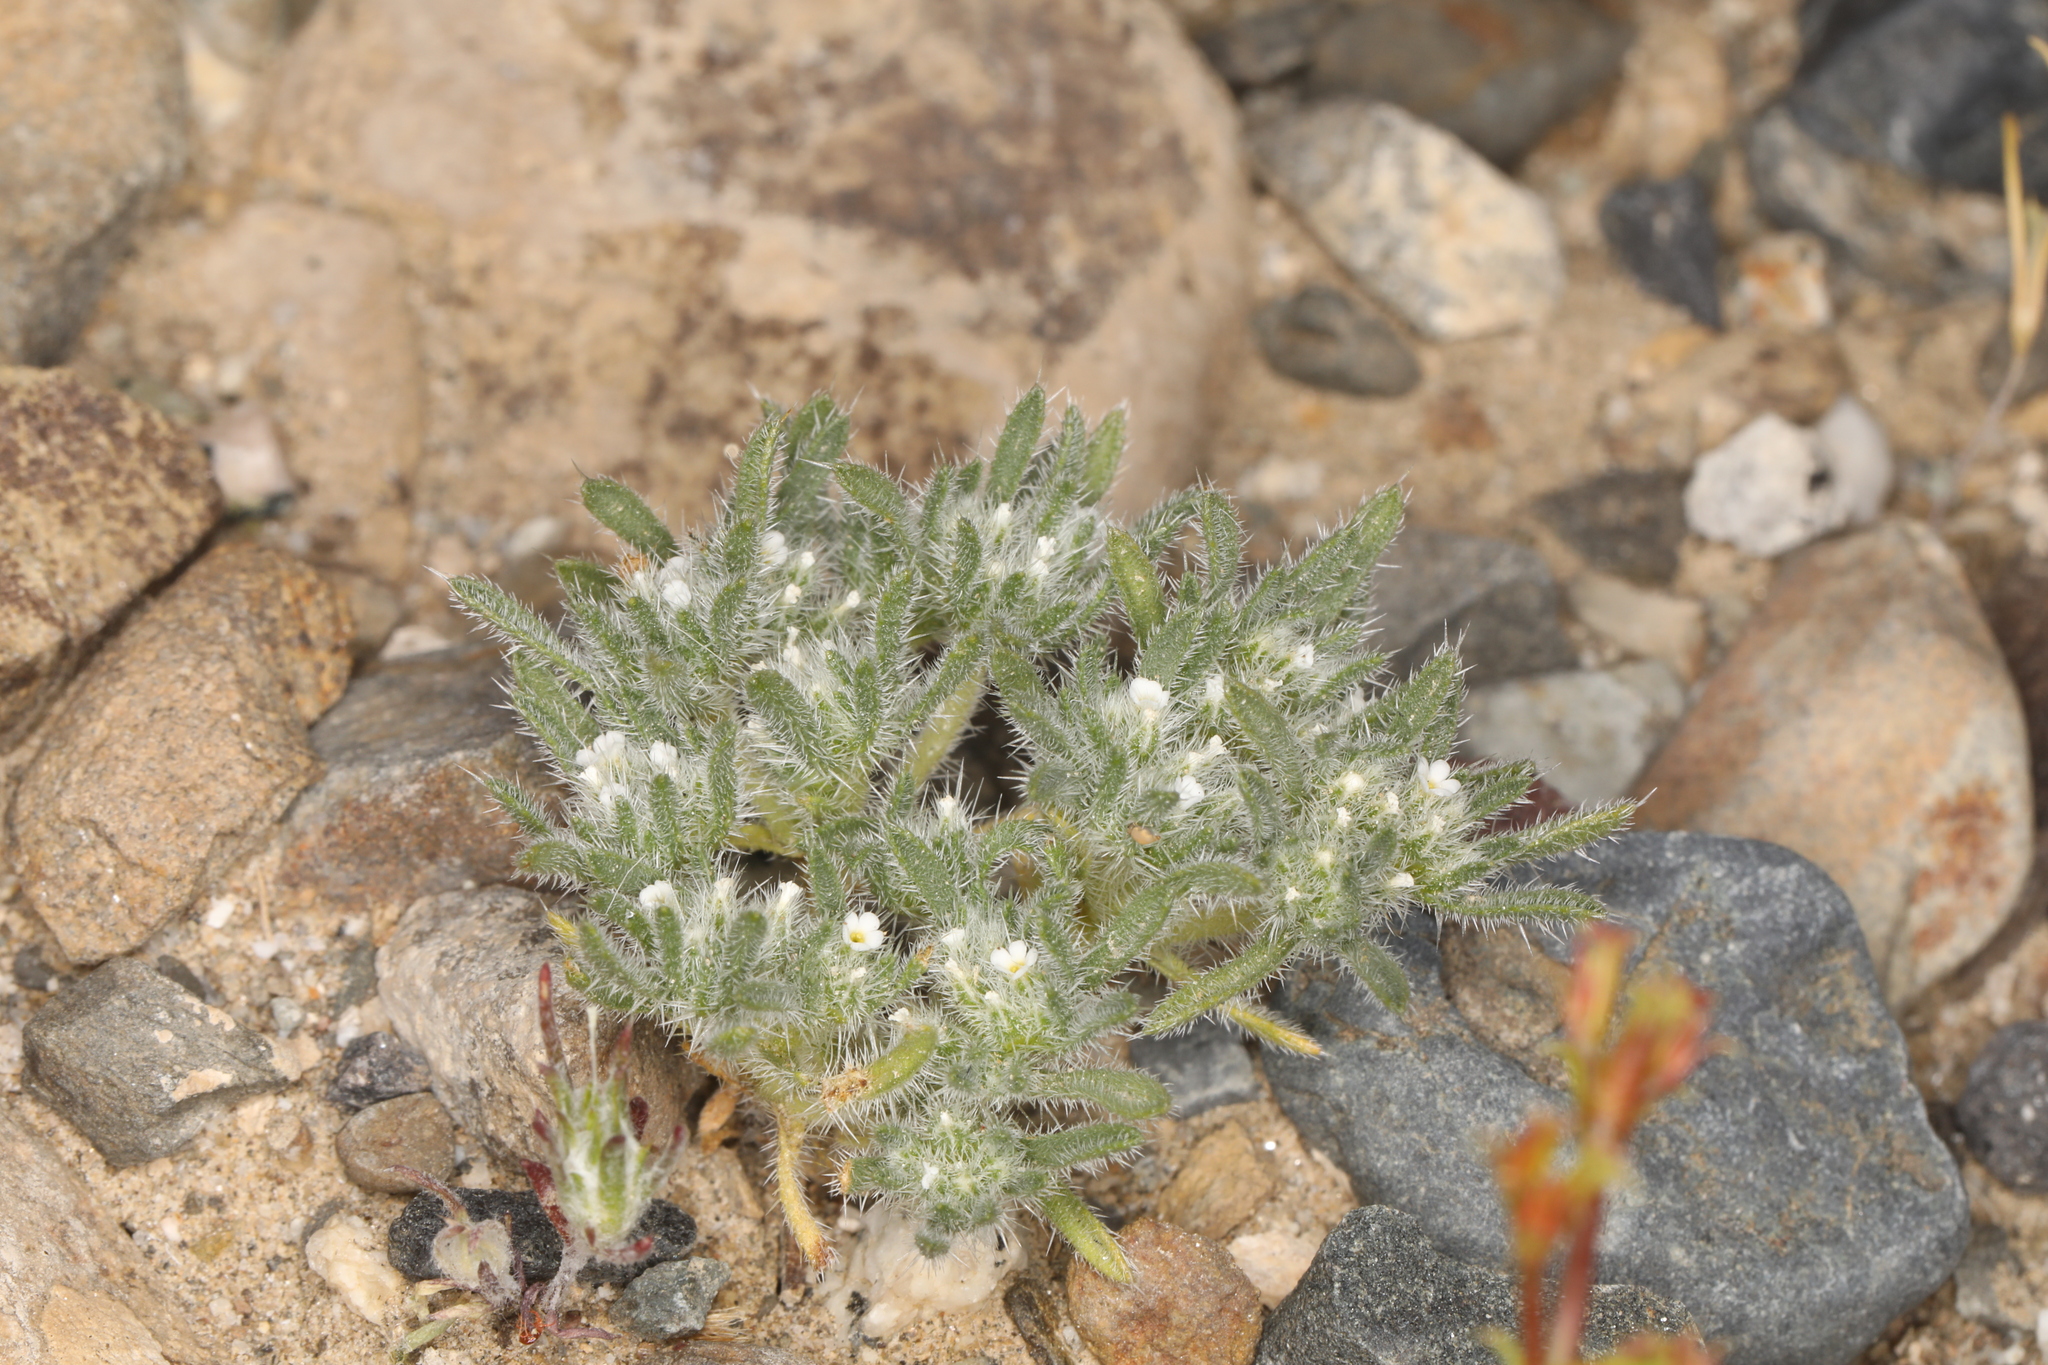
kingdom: Plantae
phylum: Tracheophyta
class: Magnoliopsida
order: Boraginales
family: Boraginaceae
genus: Greeneocharis
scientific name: Greeneocharis circumscissa
